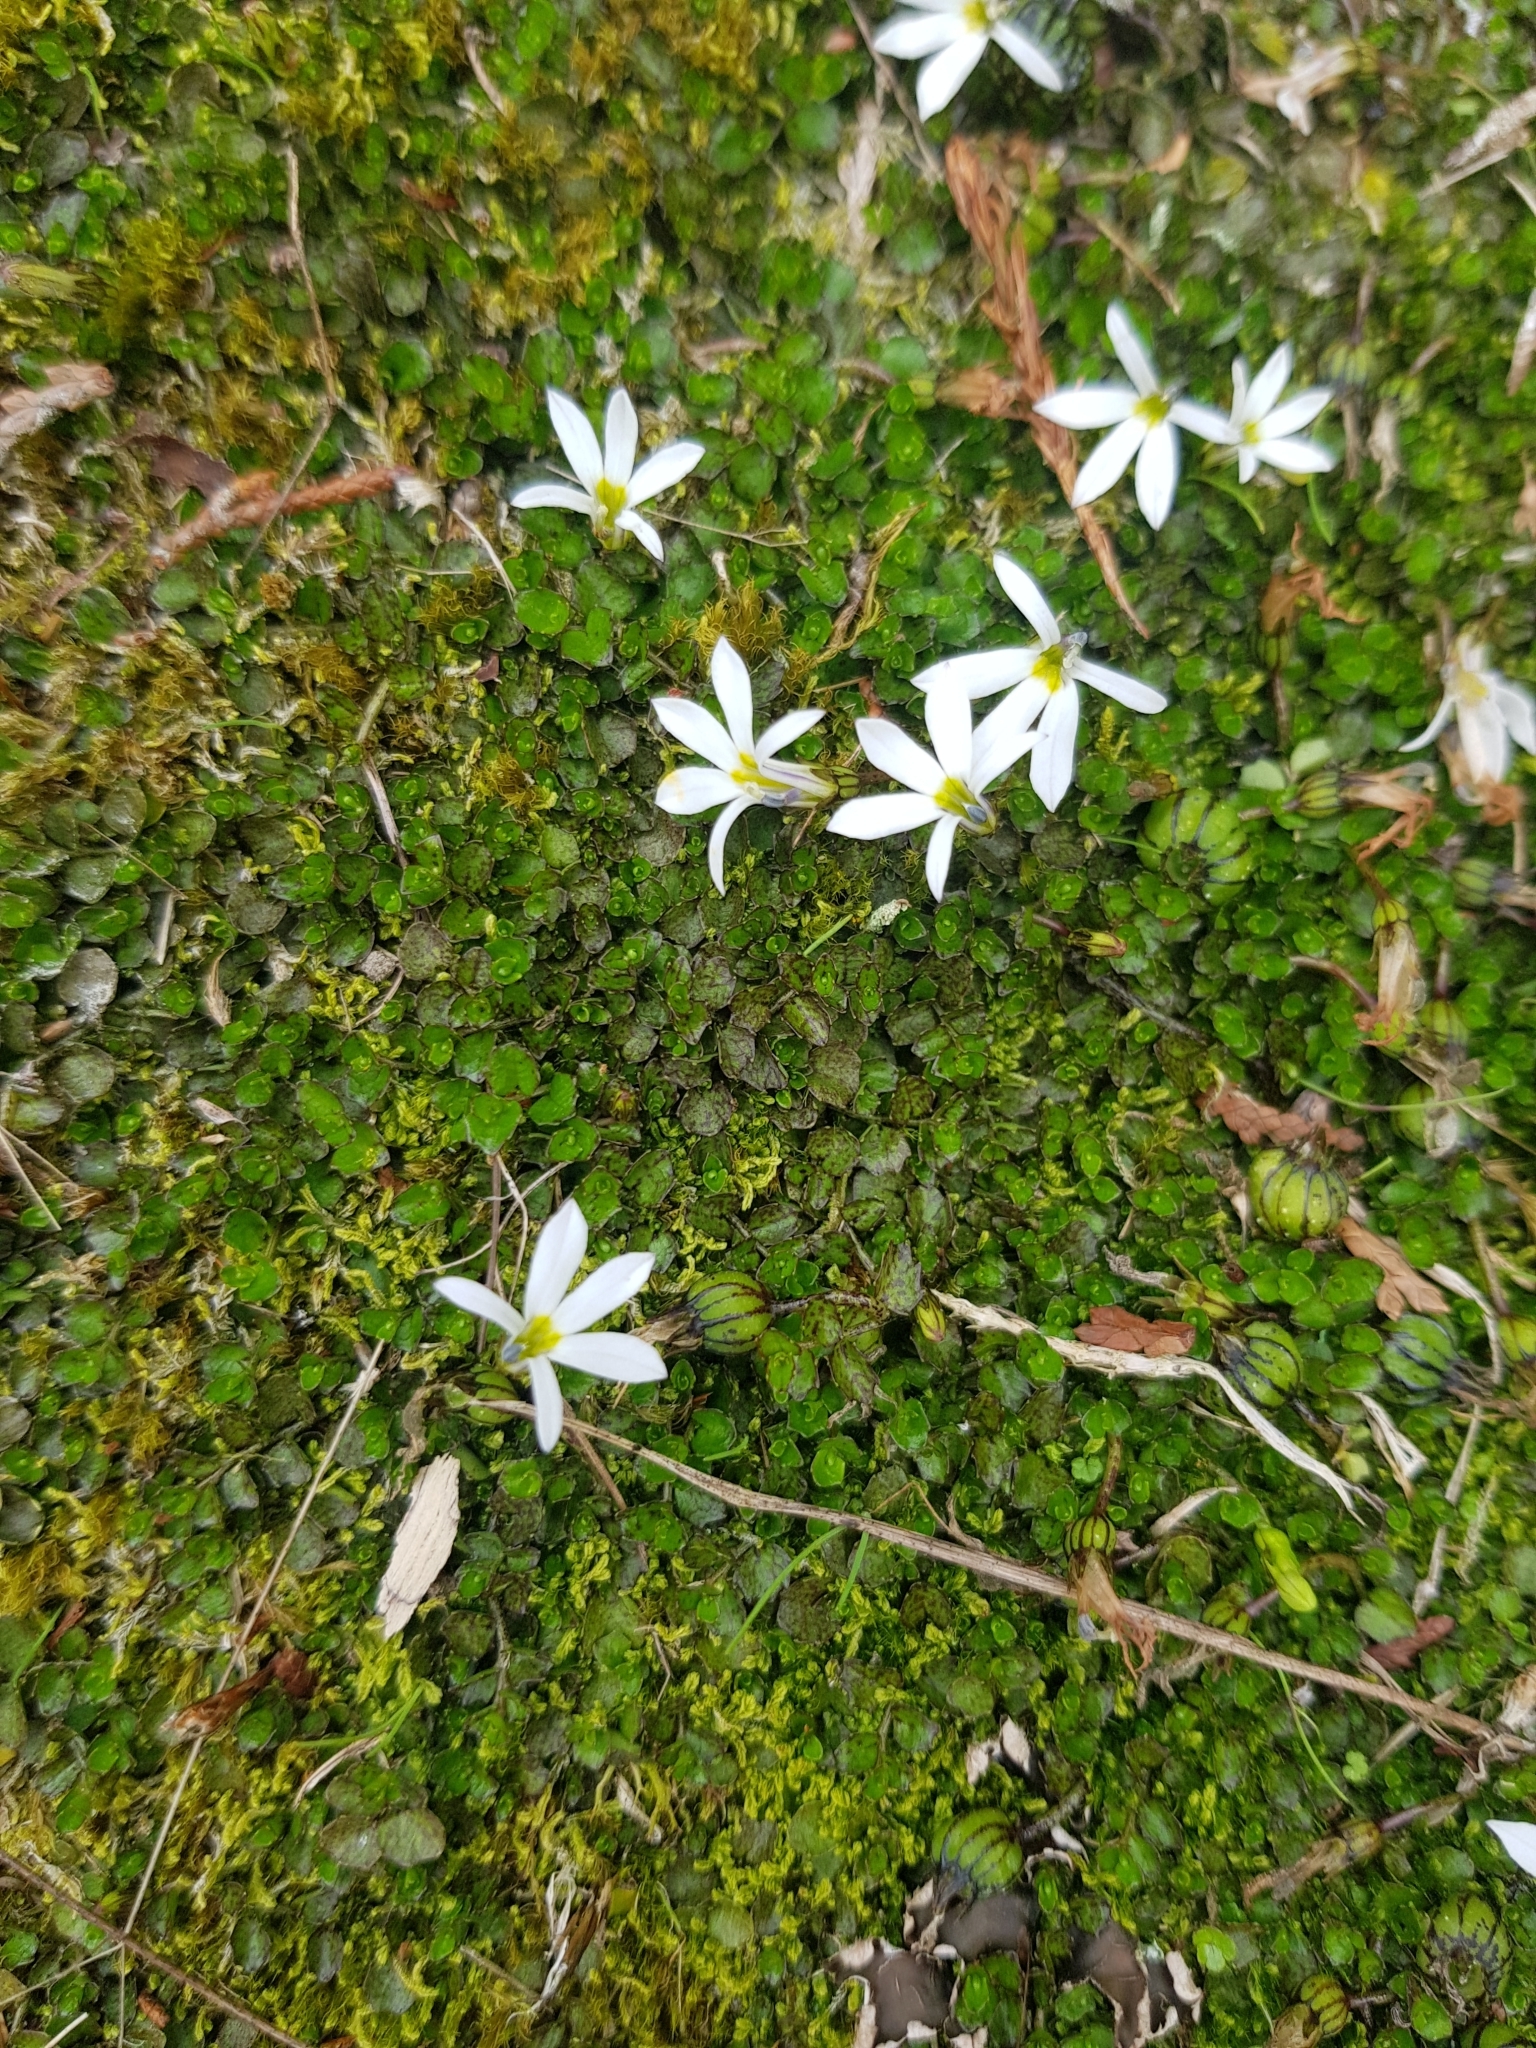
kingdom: Plantae
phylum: Tracheophyta
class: Magnoliopsida
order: Asterales
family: Campanulaceae
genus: Lobelia
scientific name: Lobelia angulata
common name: Lawn lobelia
